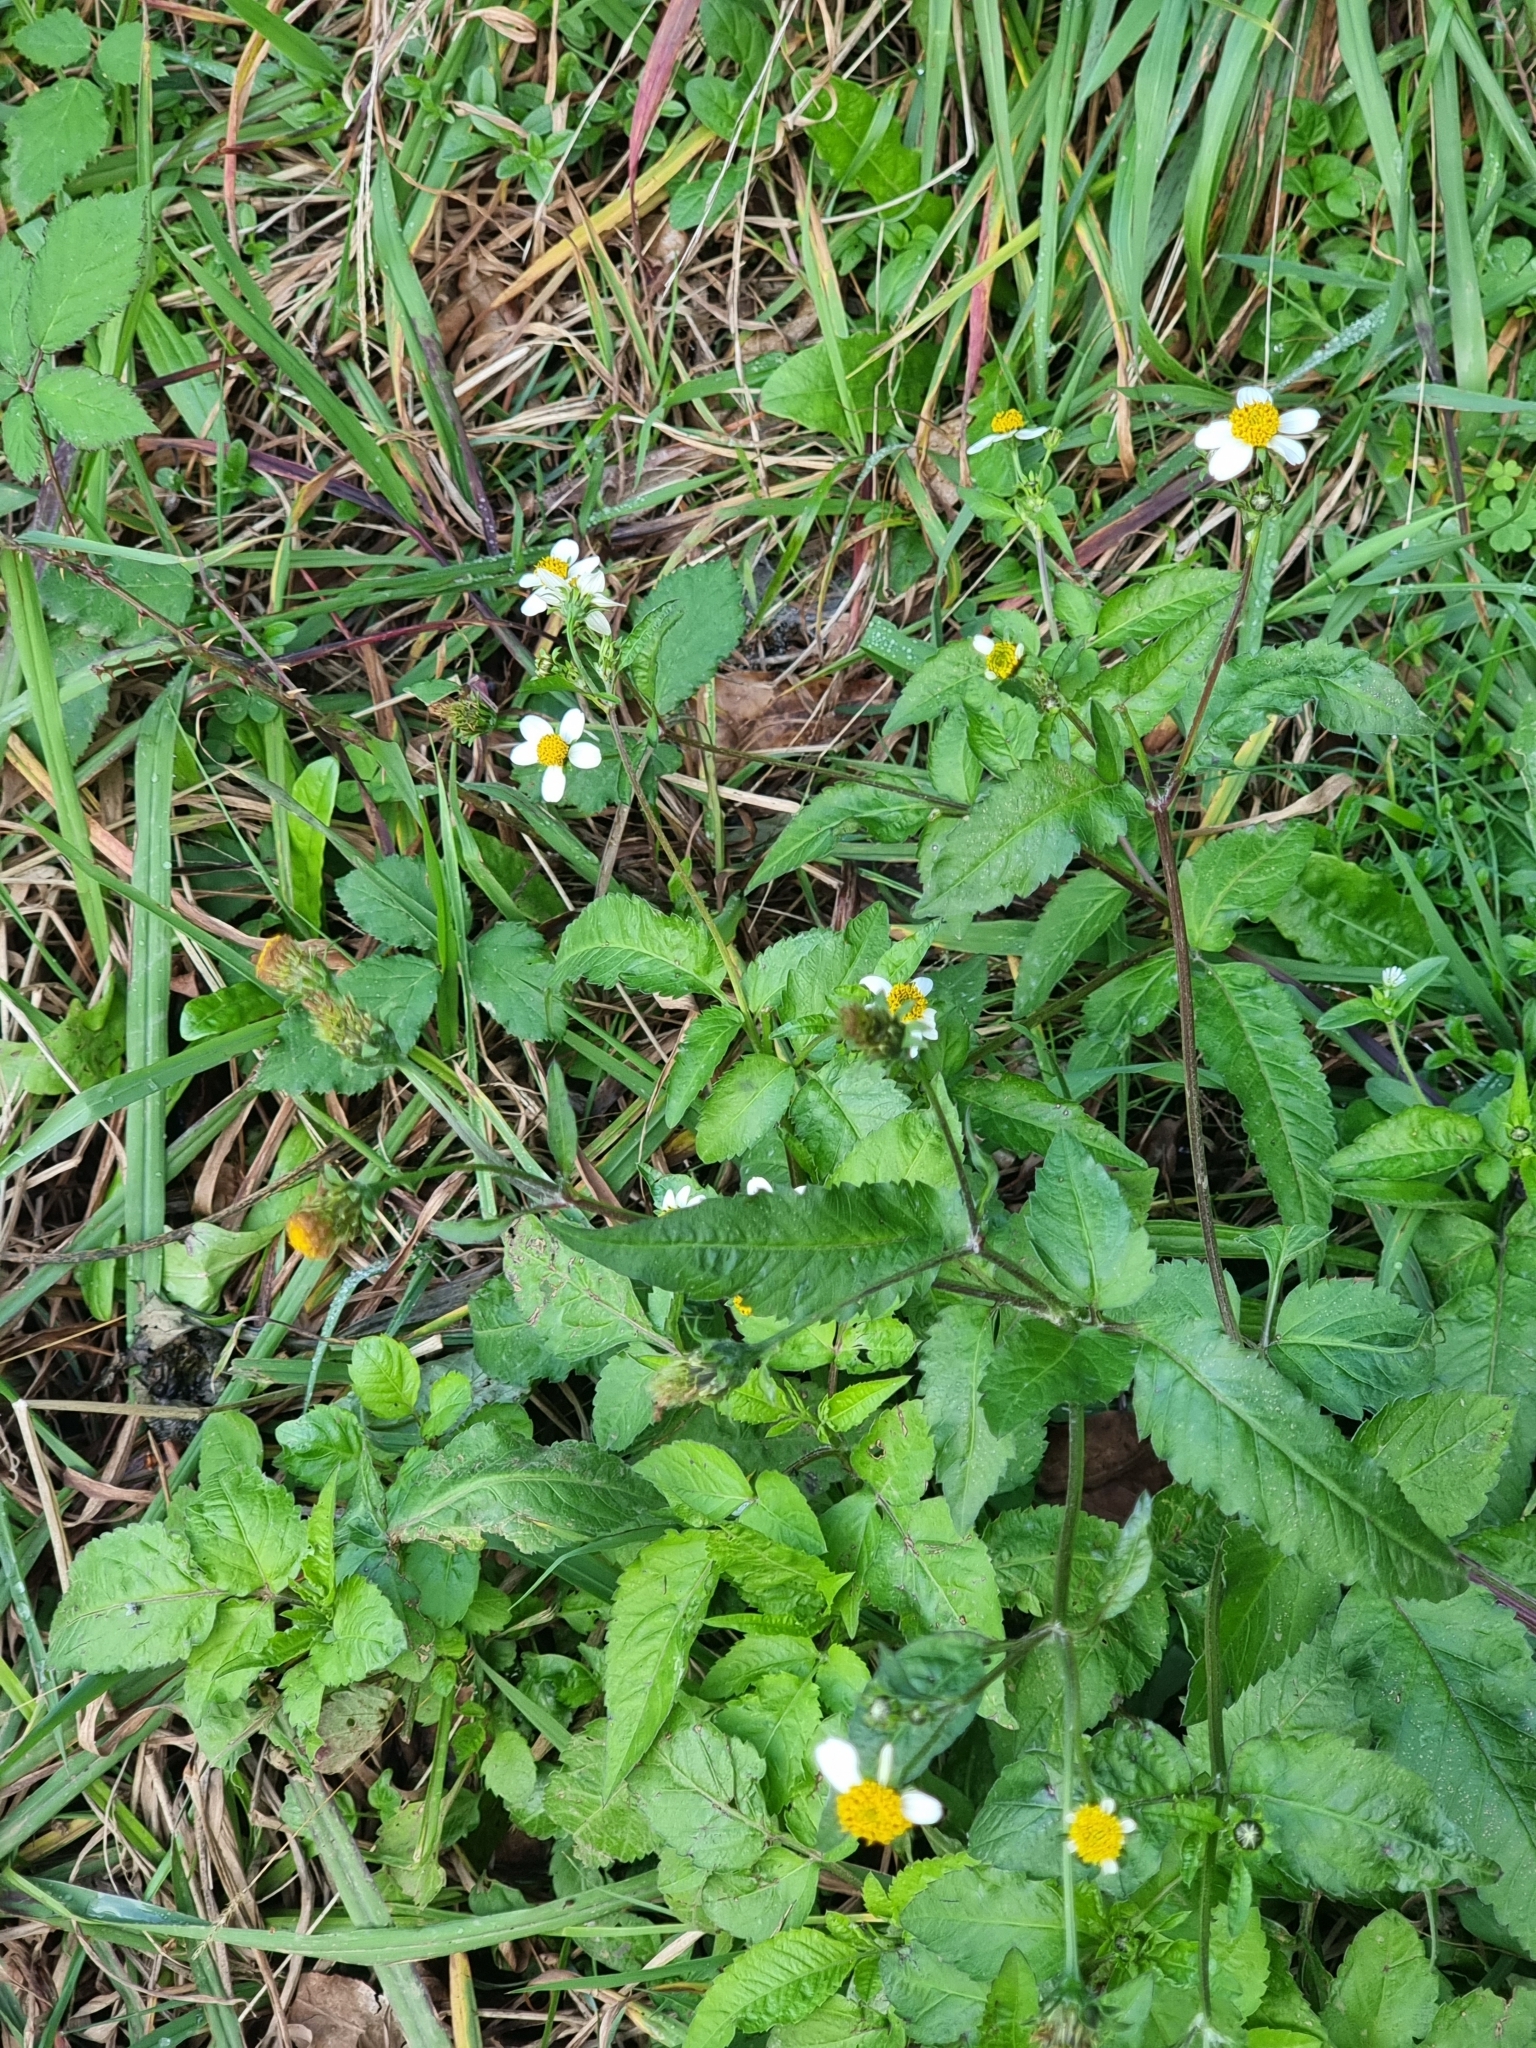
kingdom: Plantae
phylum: Tracheophyta
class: Magnoliopsida
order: Asterales
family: Asteraceae
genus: Bidens
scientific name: Bidens pilosa
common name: Black-jack
